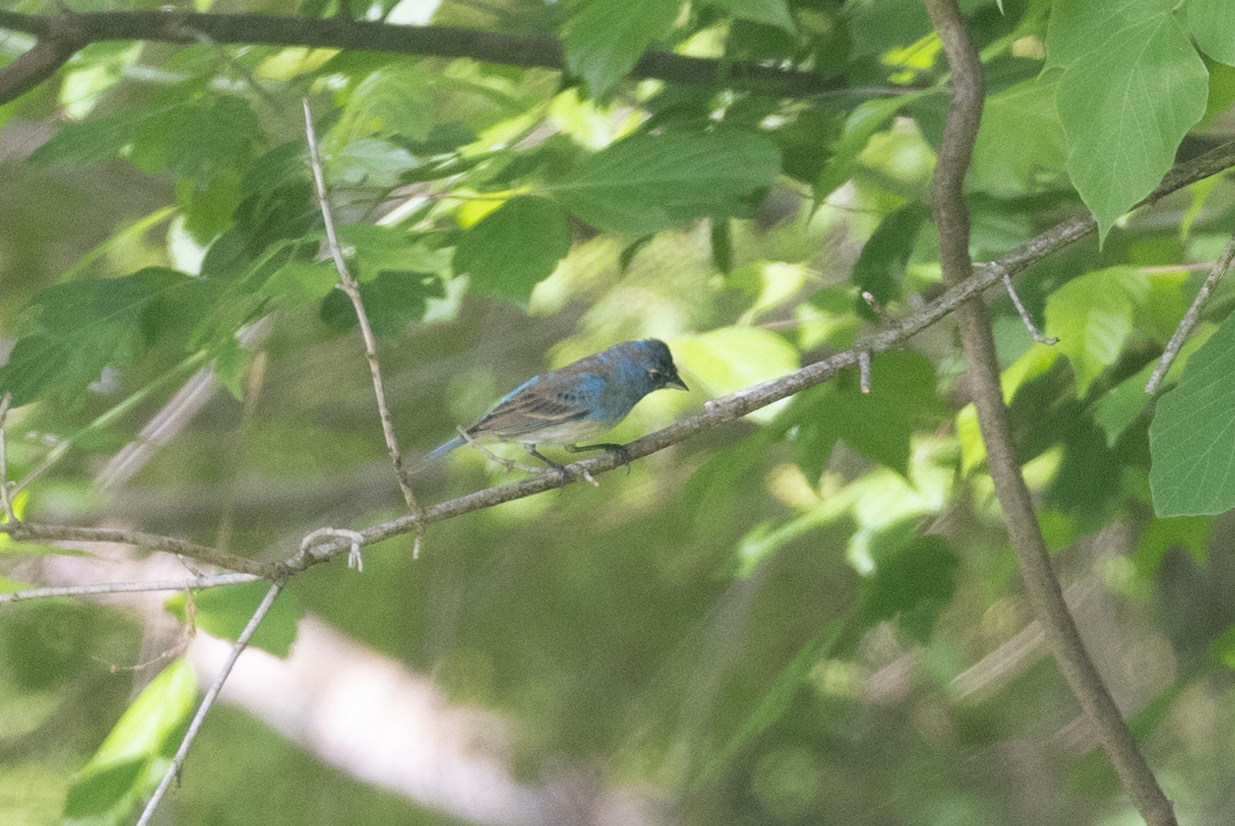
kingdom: Animalia
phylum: Chordata
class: Aves
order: Passeriformes
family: Cardinalidae
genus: Passerina
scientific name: Passerina cyanea
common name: Indigo bunting
